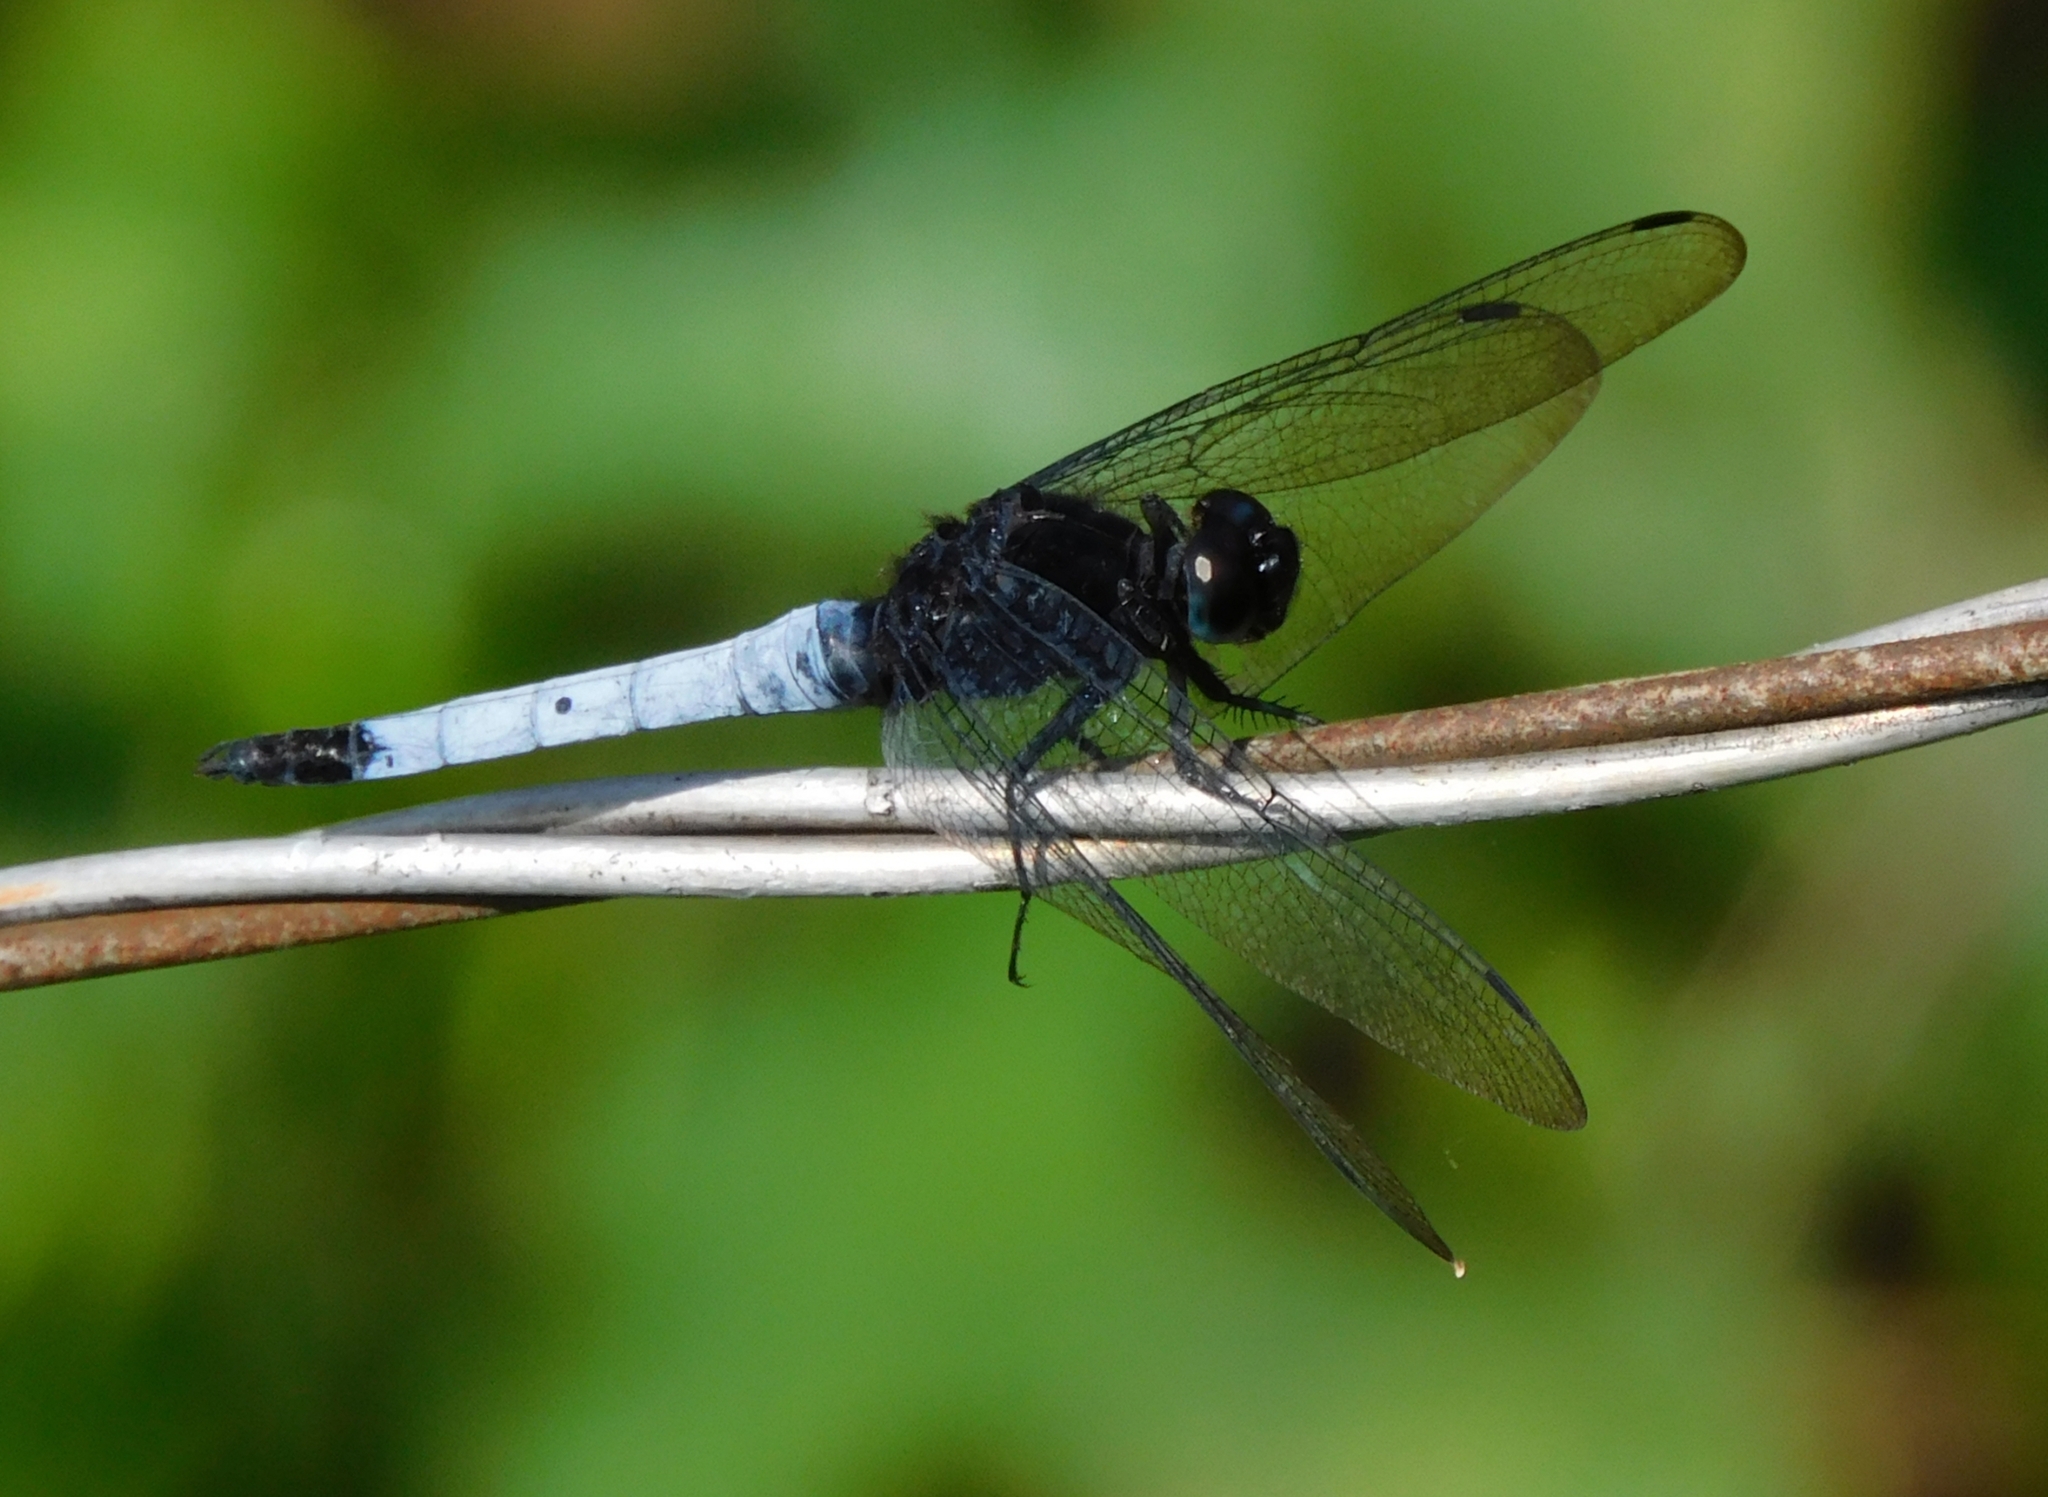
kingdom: Animalia
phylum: Arthropoda
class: Insecta
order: Odonata
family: Libellulidae
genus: Orthetrum
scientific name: Orthetrum triangulare
